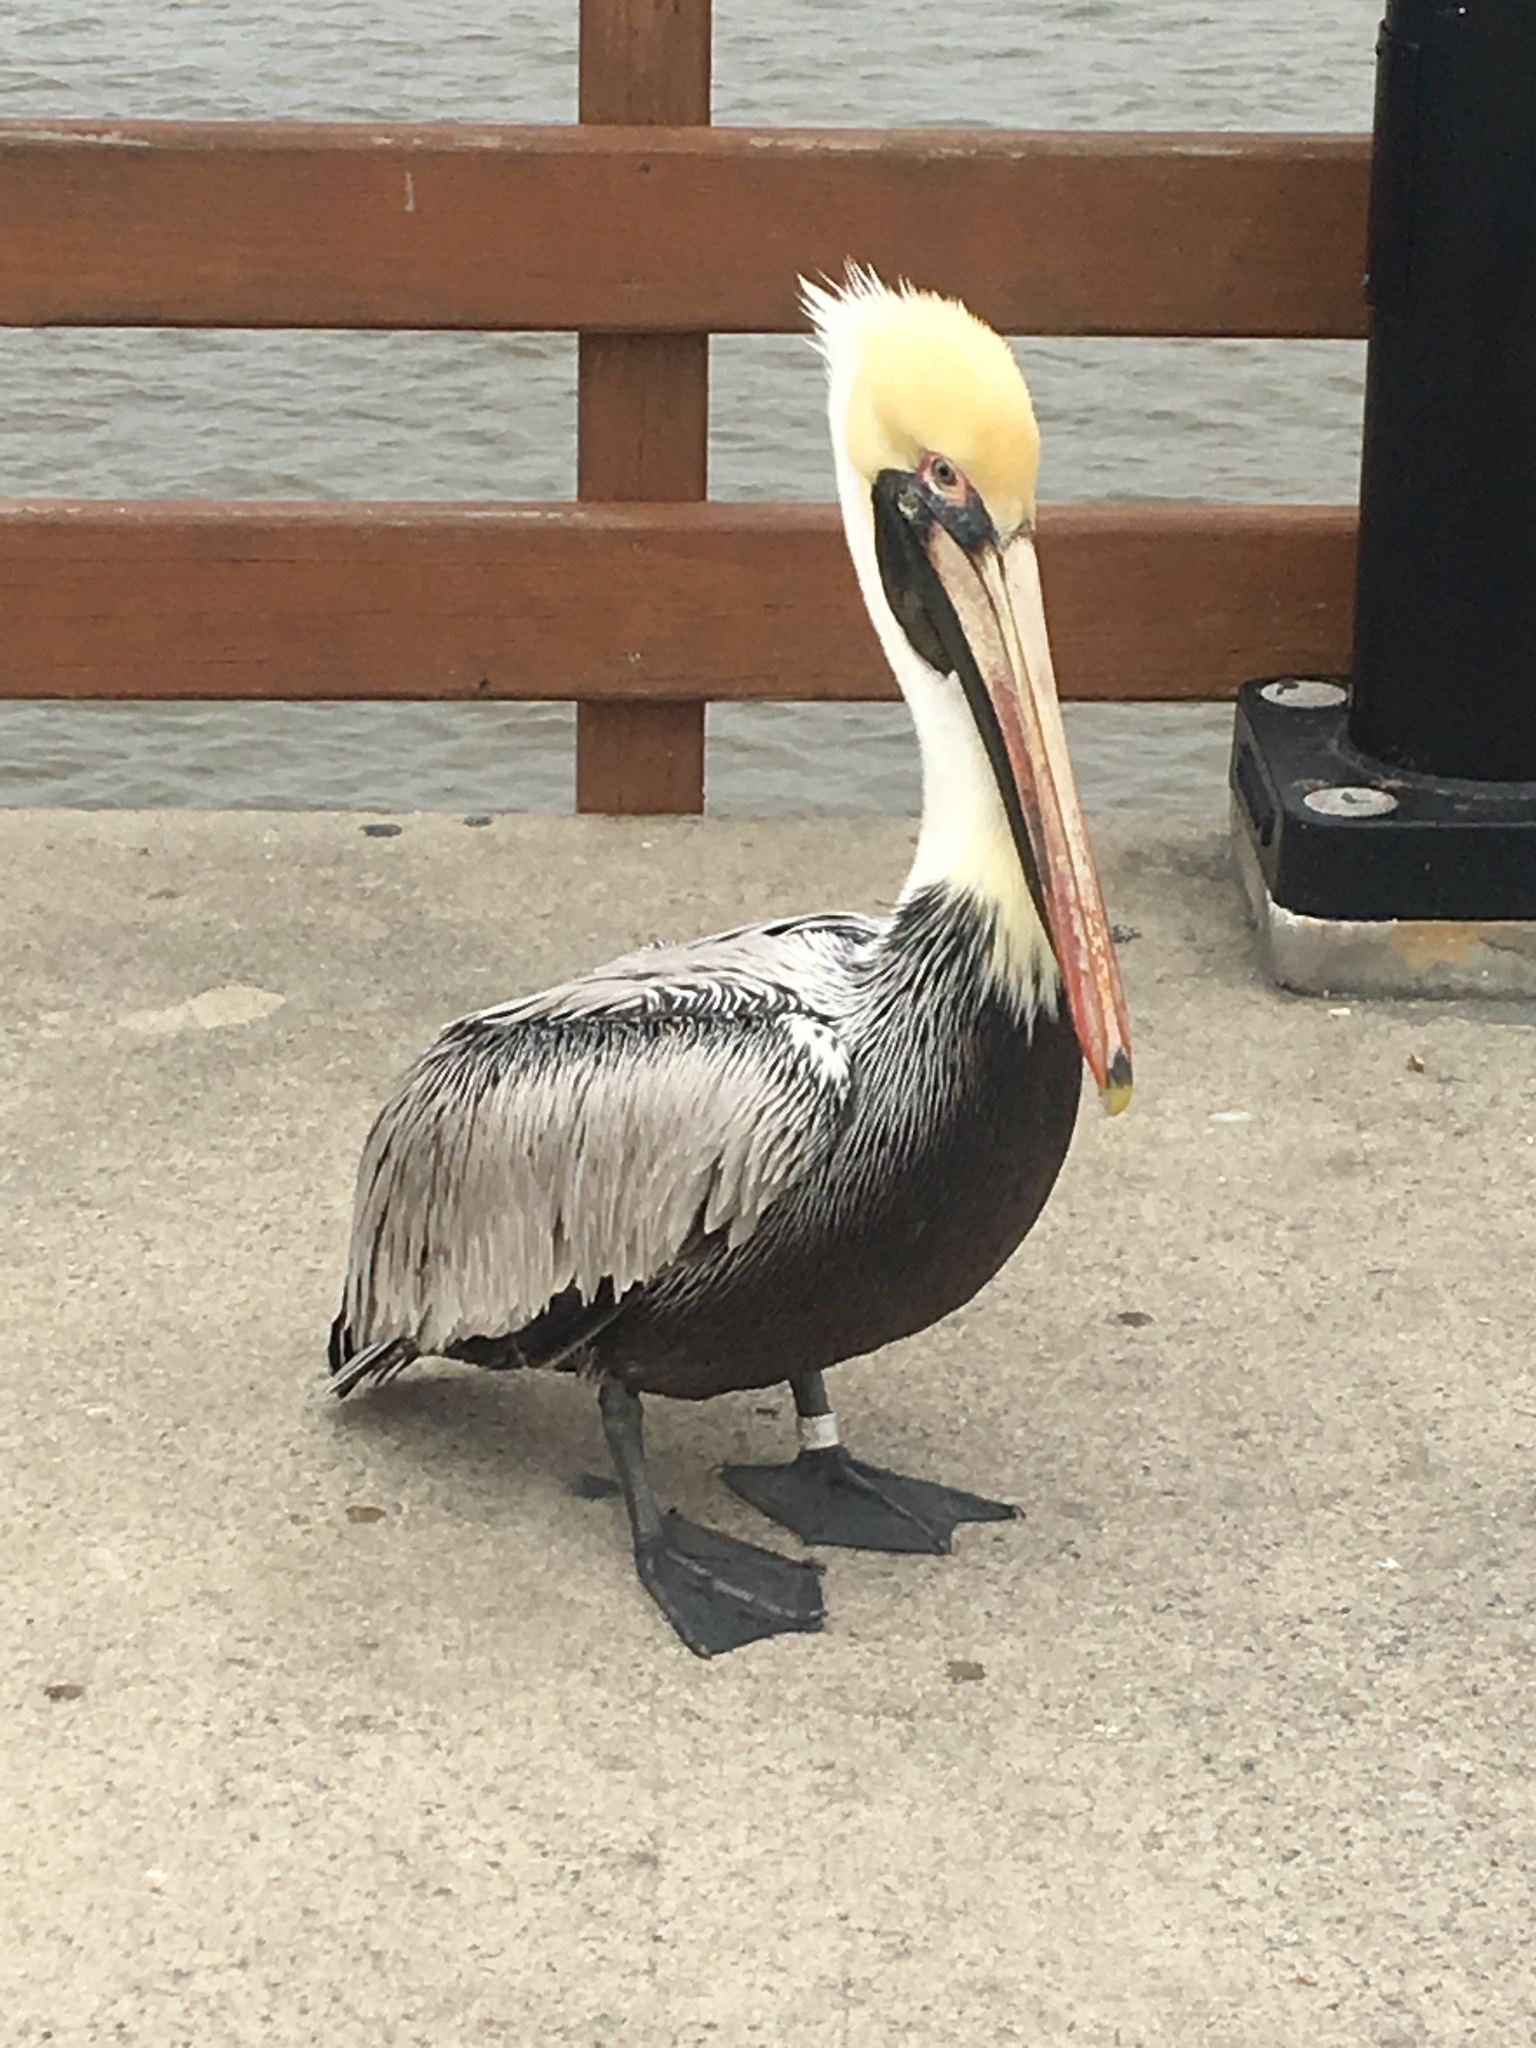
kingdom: Animalia
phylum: Chordata
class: Aves
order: Pelecaniformes
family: Pelecanidae
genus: Pelecanus
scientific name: Pelecanus occidentalis
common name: Brown pelican
